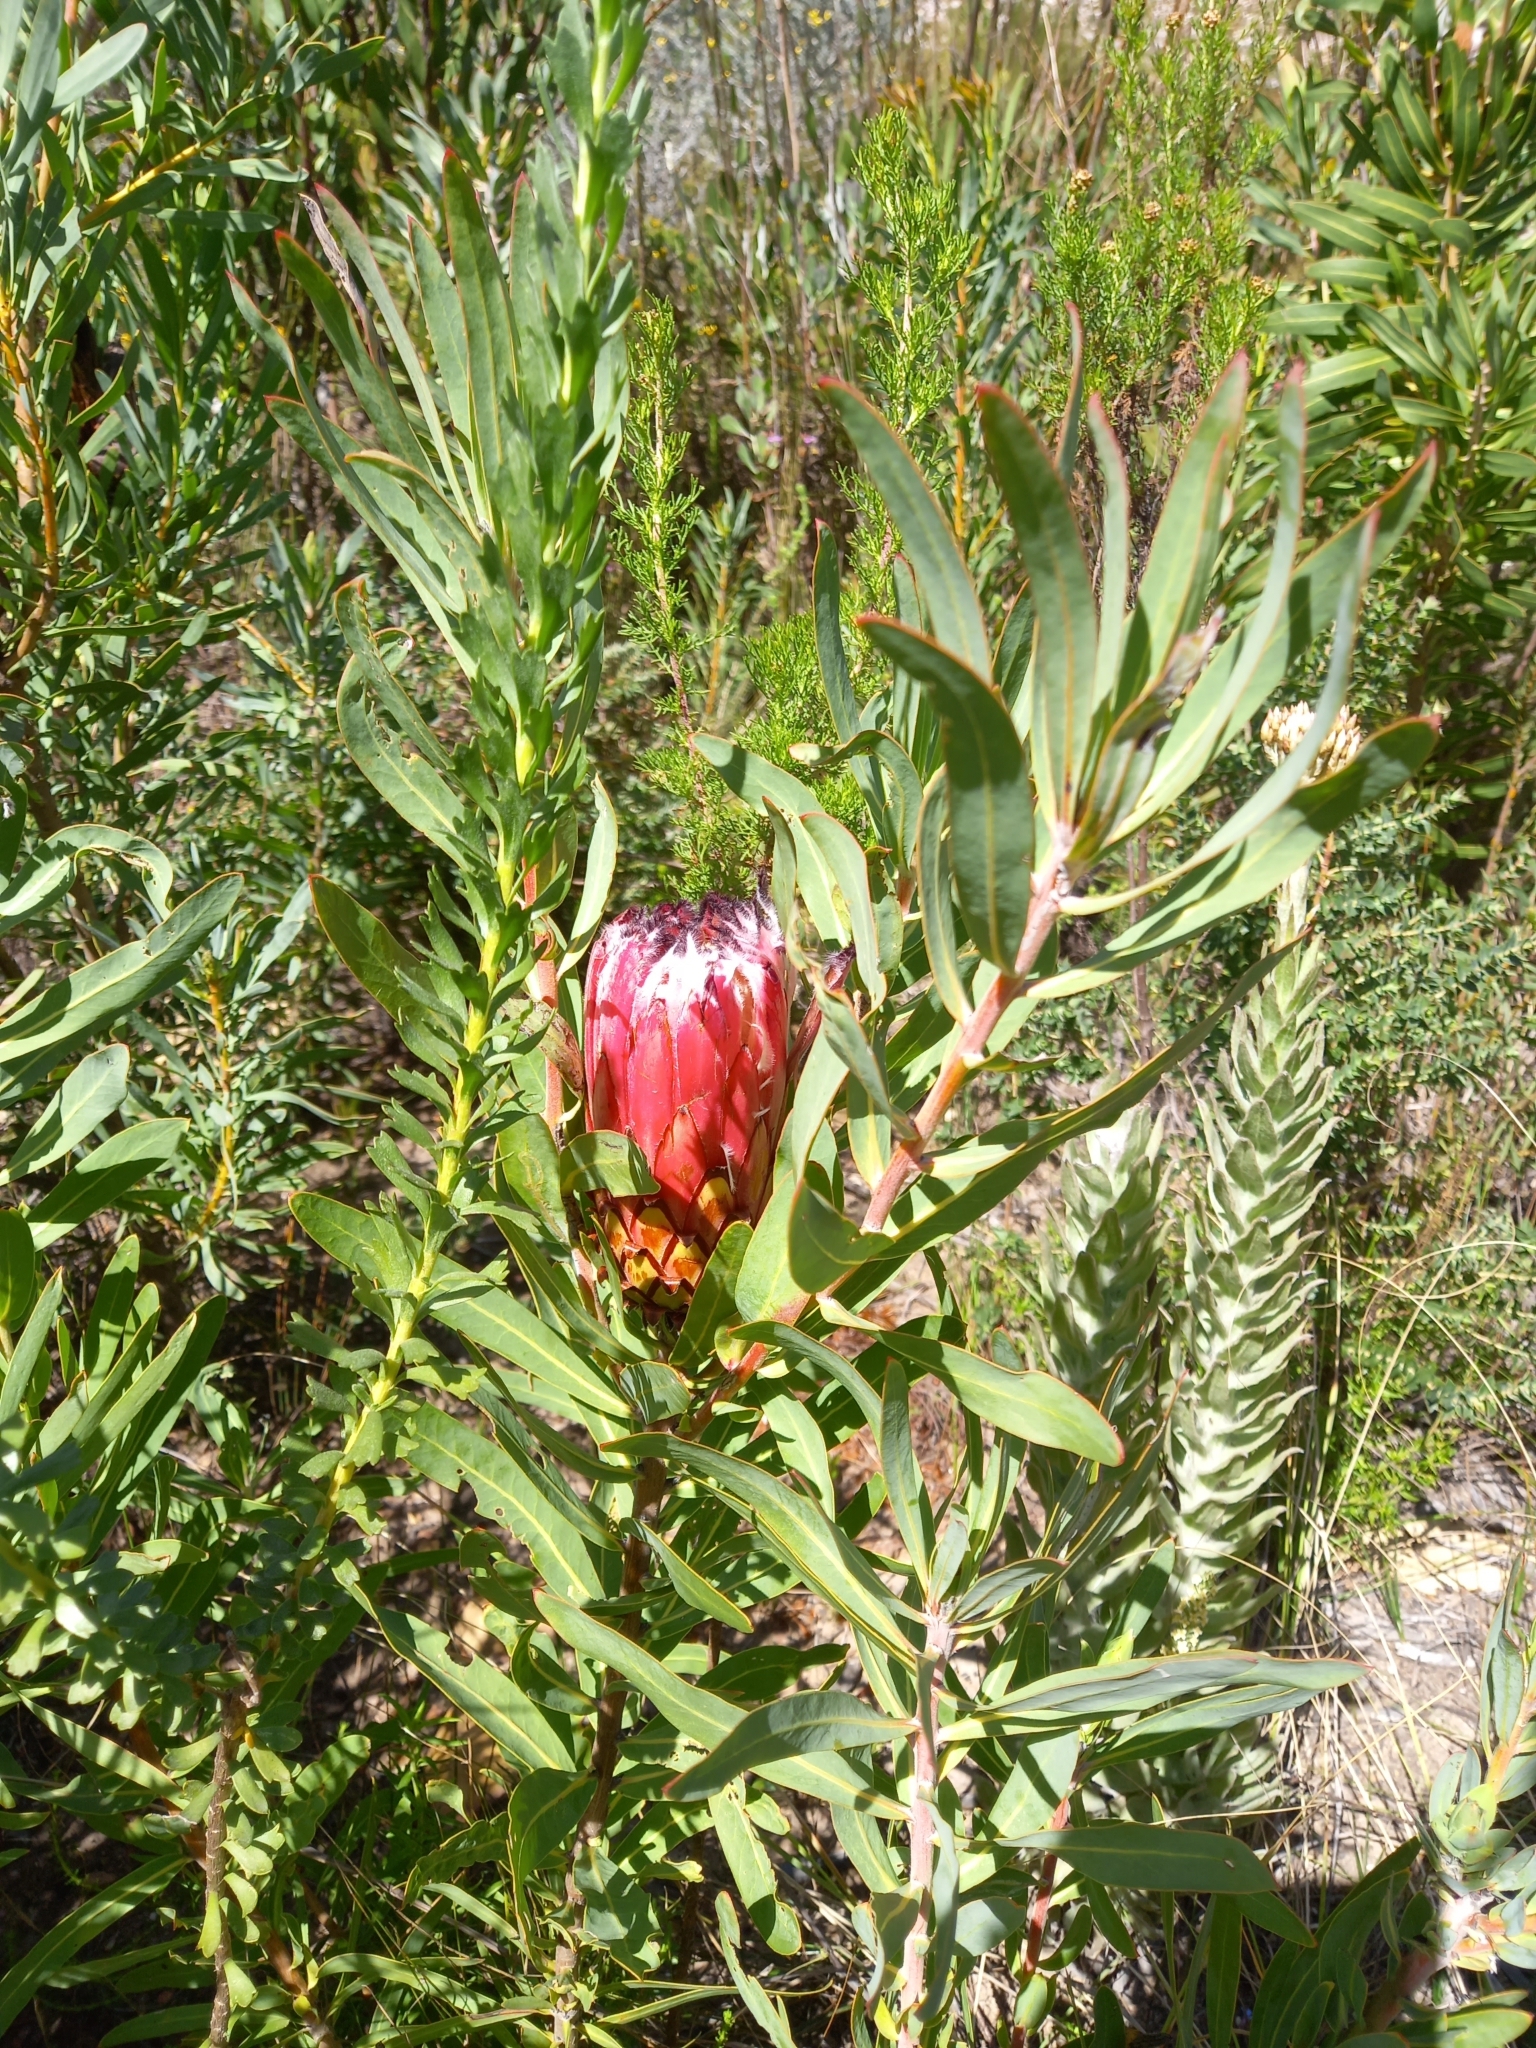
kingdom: Plantae
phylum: Tracheophyta
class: Magnoliopsida
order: Proteales
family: Proteaceae
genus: Protea
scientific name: Protea neriifolia
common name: Blue sugarbush
